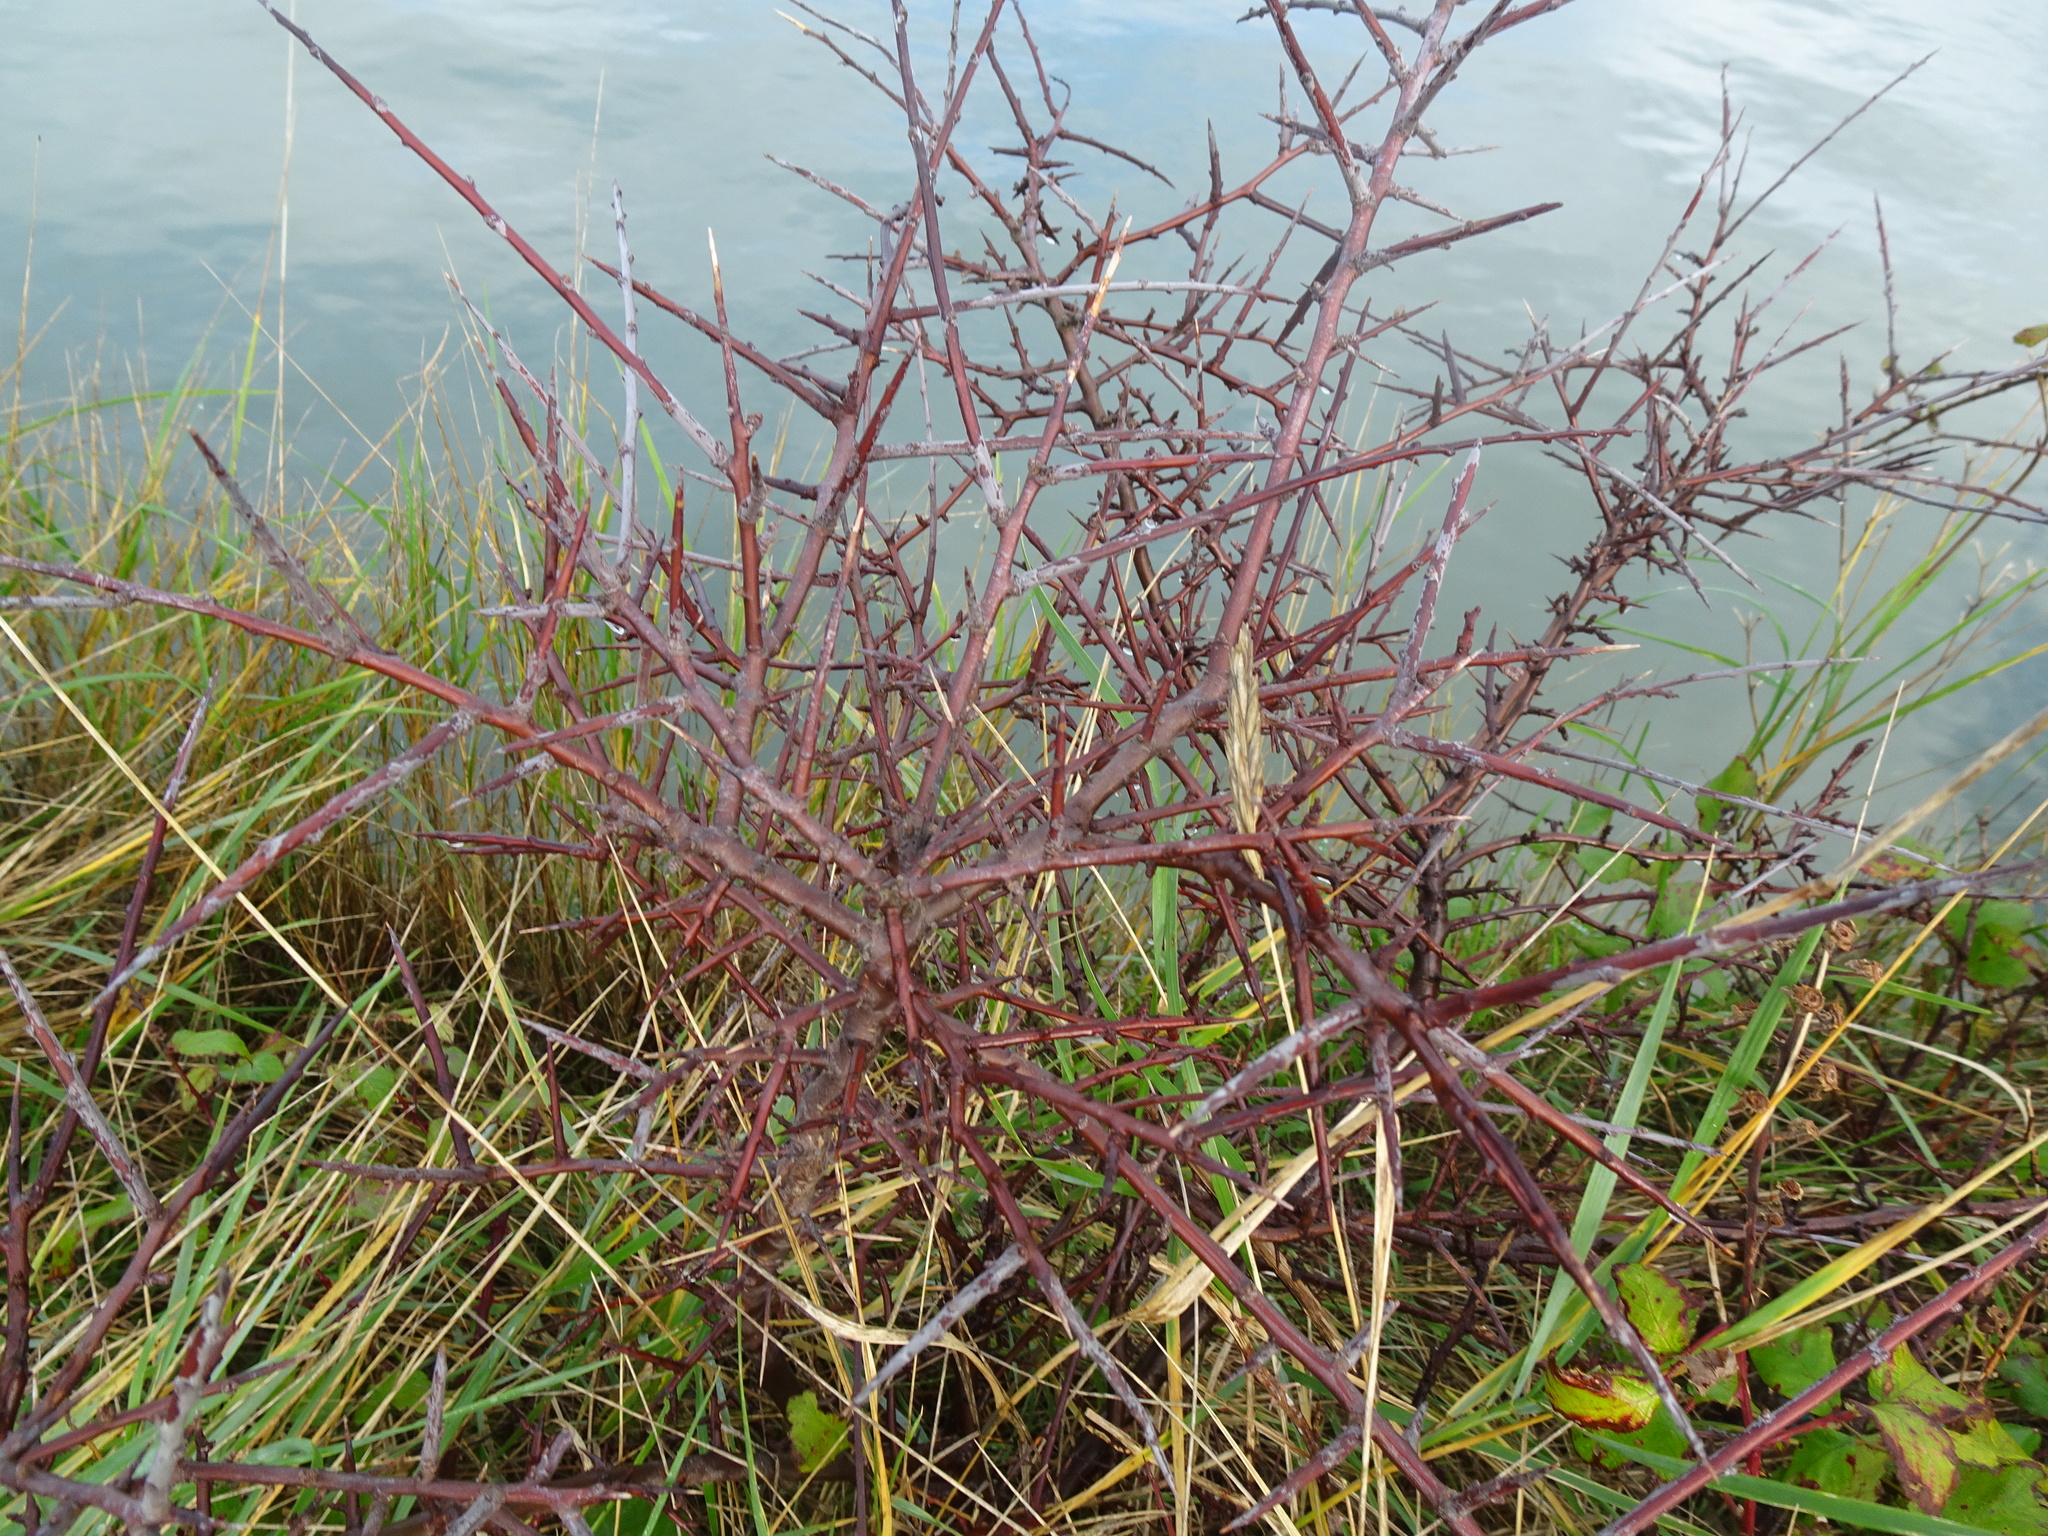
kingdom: Plantae
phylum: Tracheophyta
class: Magnoliopsida
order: Rosales
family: Rosaceae
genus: Prunus
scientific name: Prunus spinosa
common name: Blackthorn
